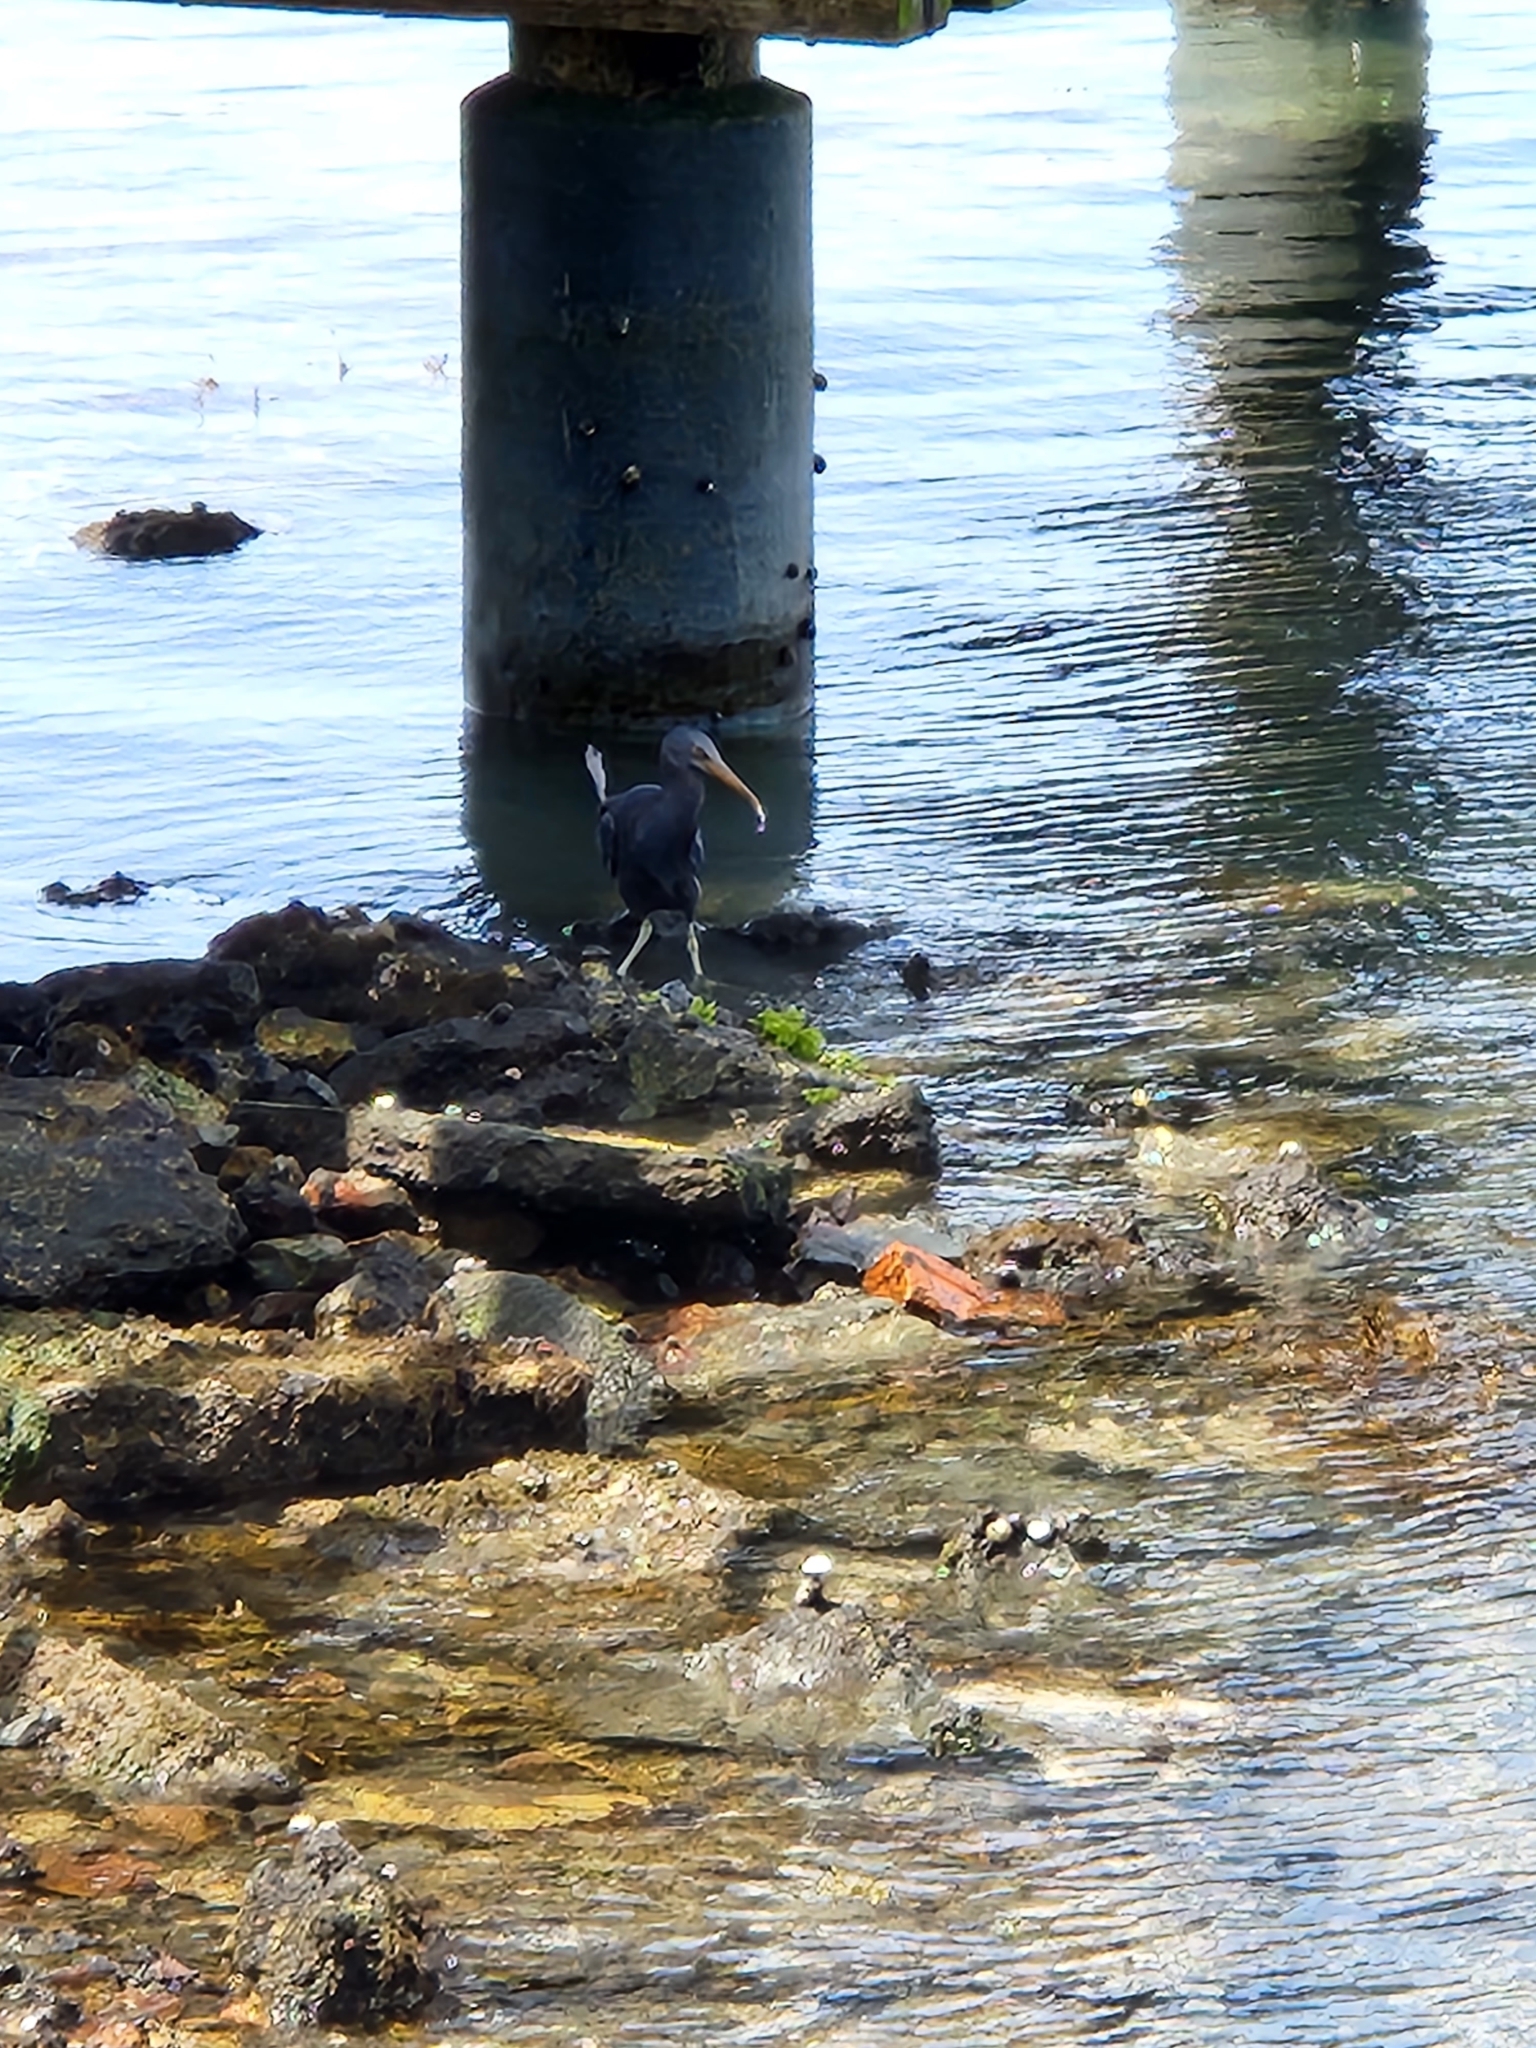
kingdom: Animalia
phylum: Chordata
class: Aves
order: Pelecaniformes
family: Ardeidae
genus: Egretta
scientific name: Egretta sacra
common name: Pacific reef heron
